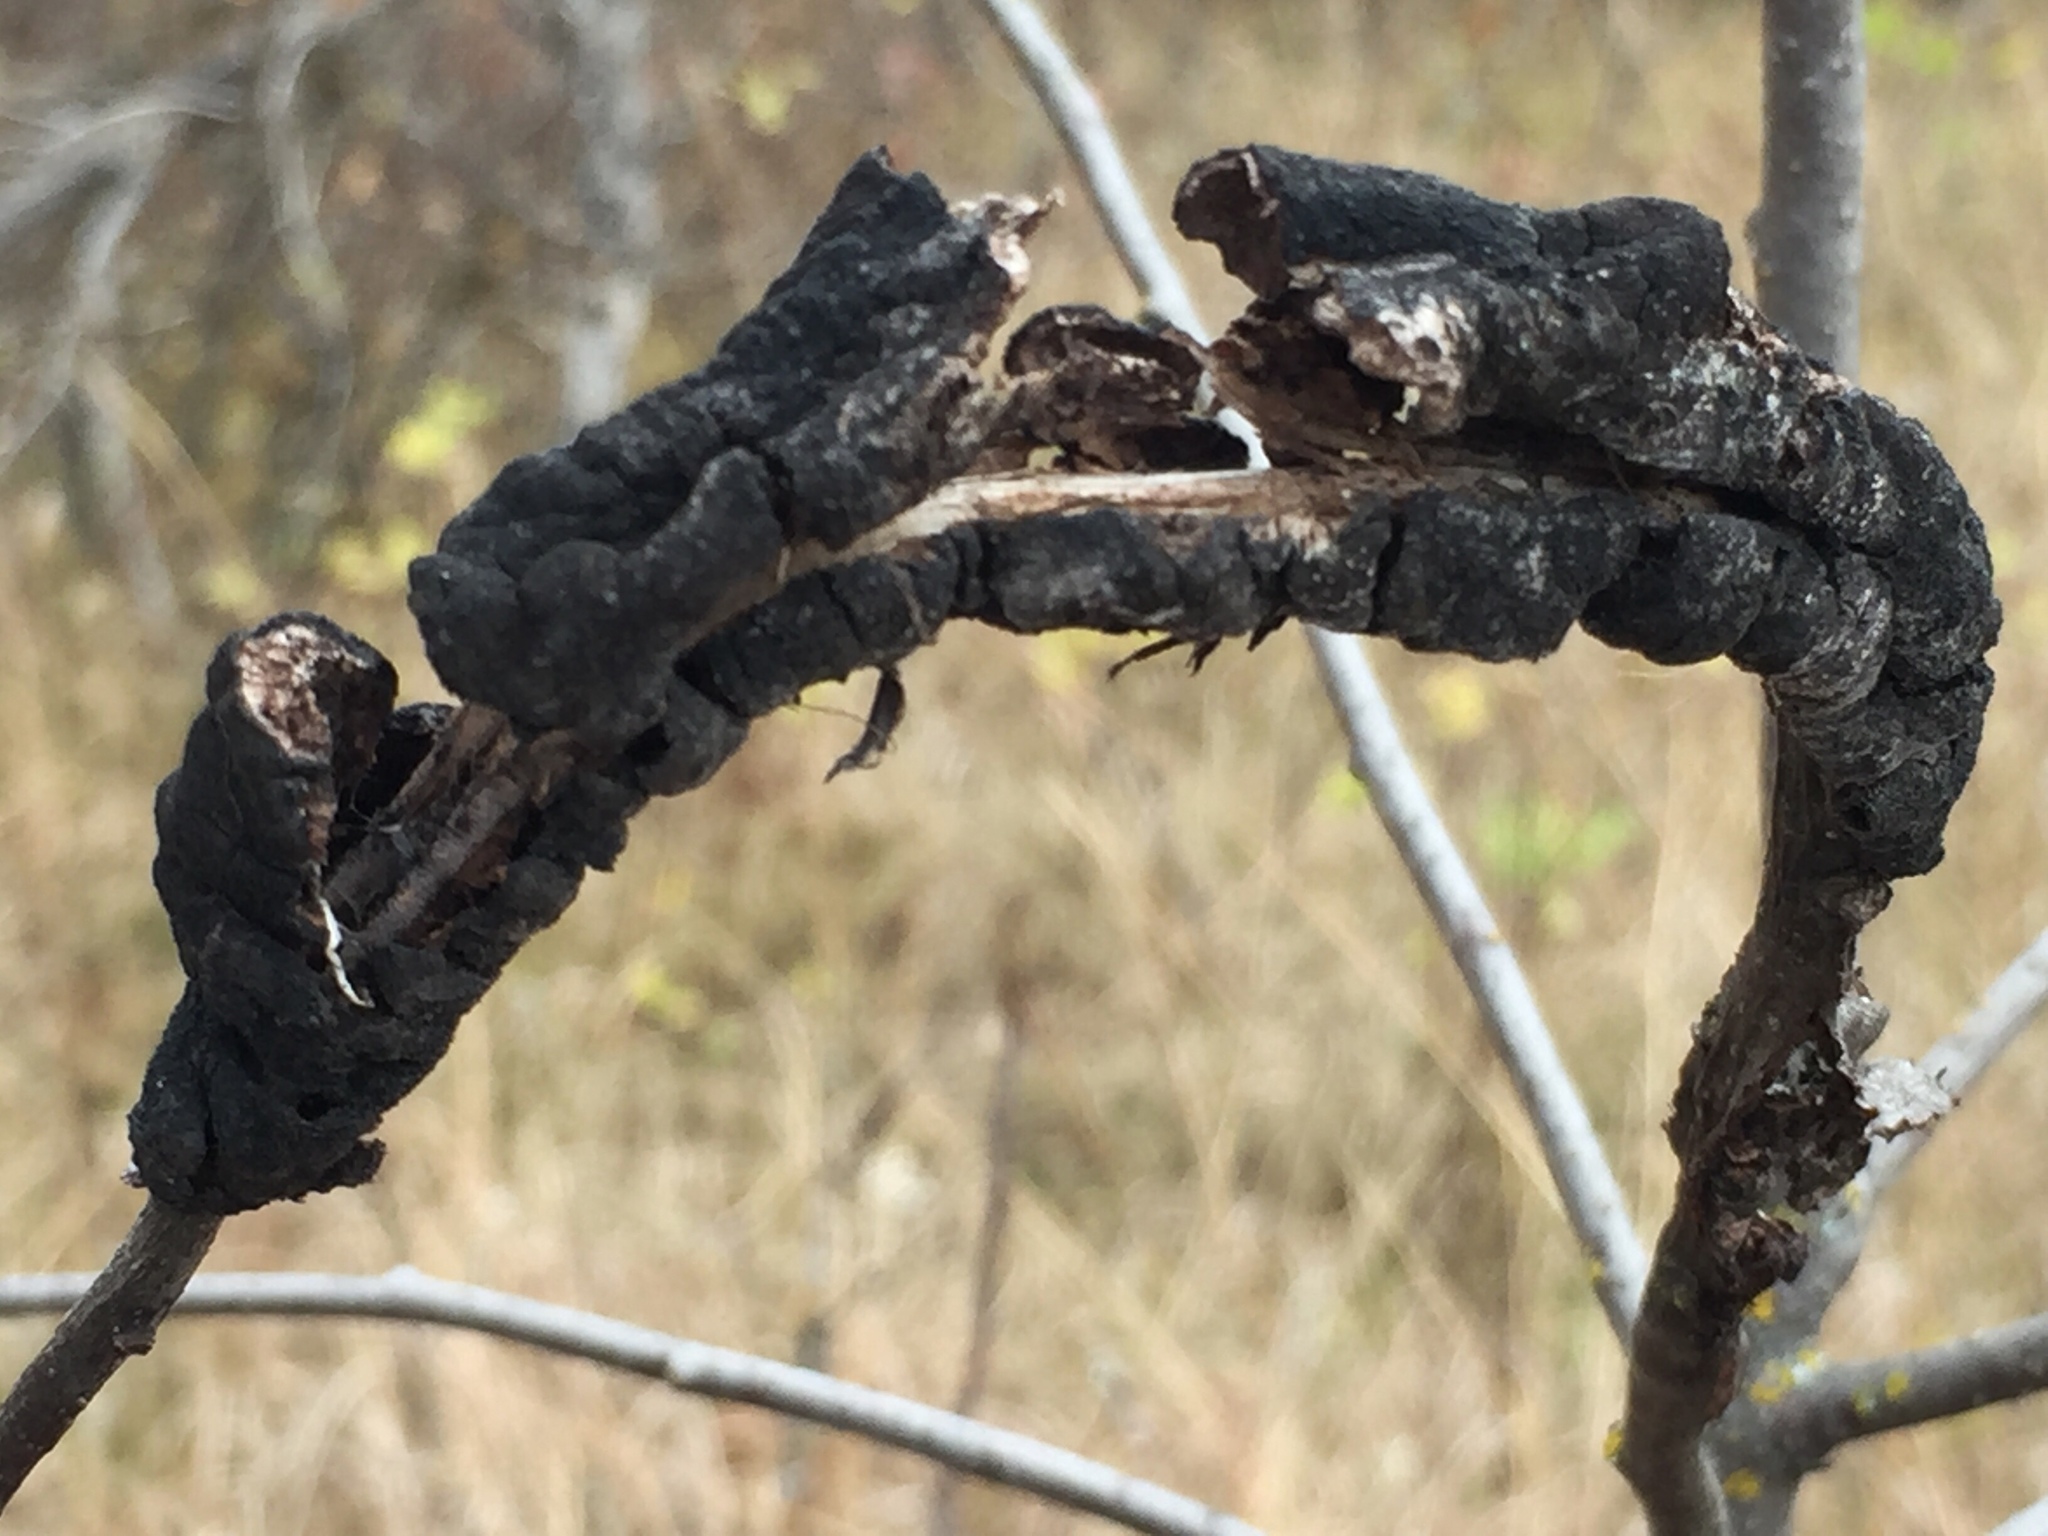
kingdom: Fungi
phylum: Ascomycota
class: Dothideomycetes
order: Venturiales
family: Venturiaceae
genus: Apiosporina
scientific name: Apiosporina morbosa
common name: Black knot
